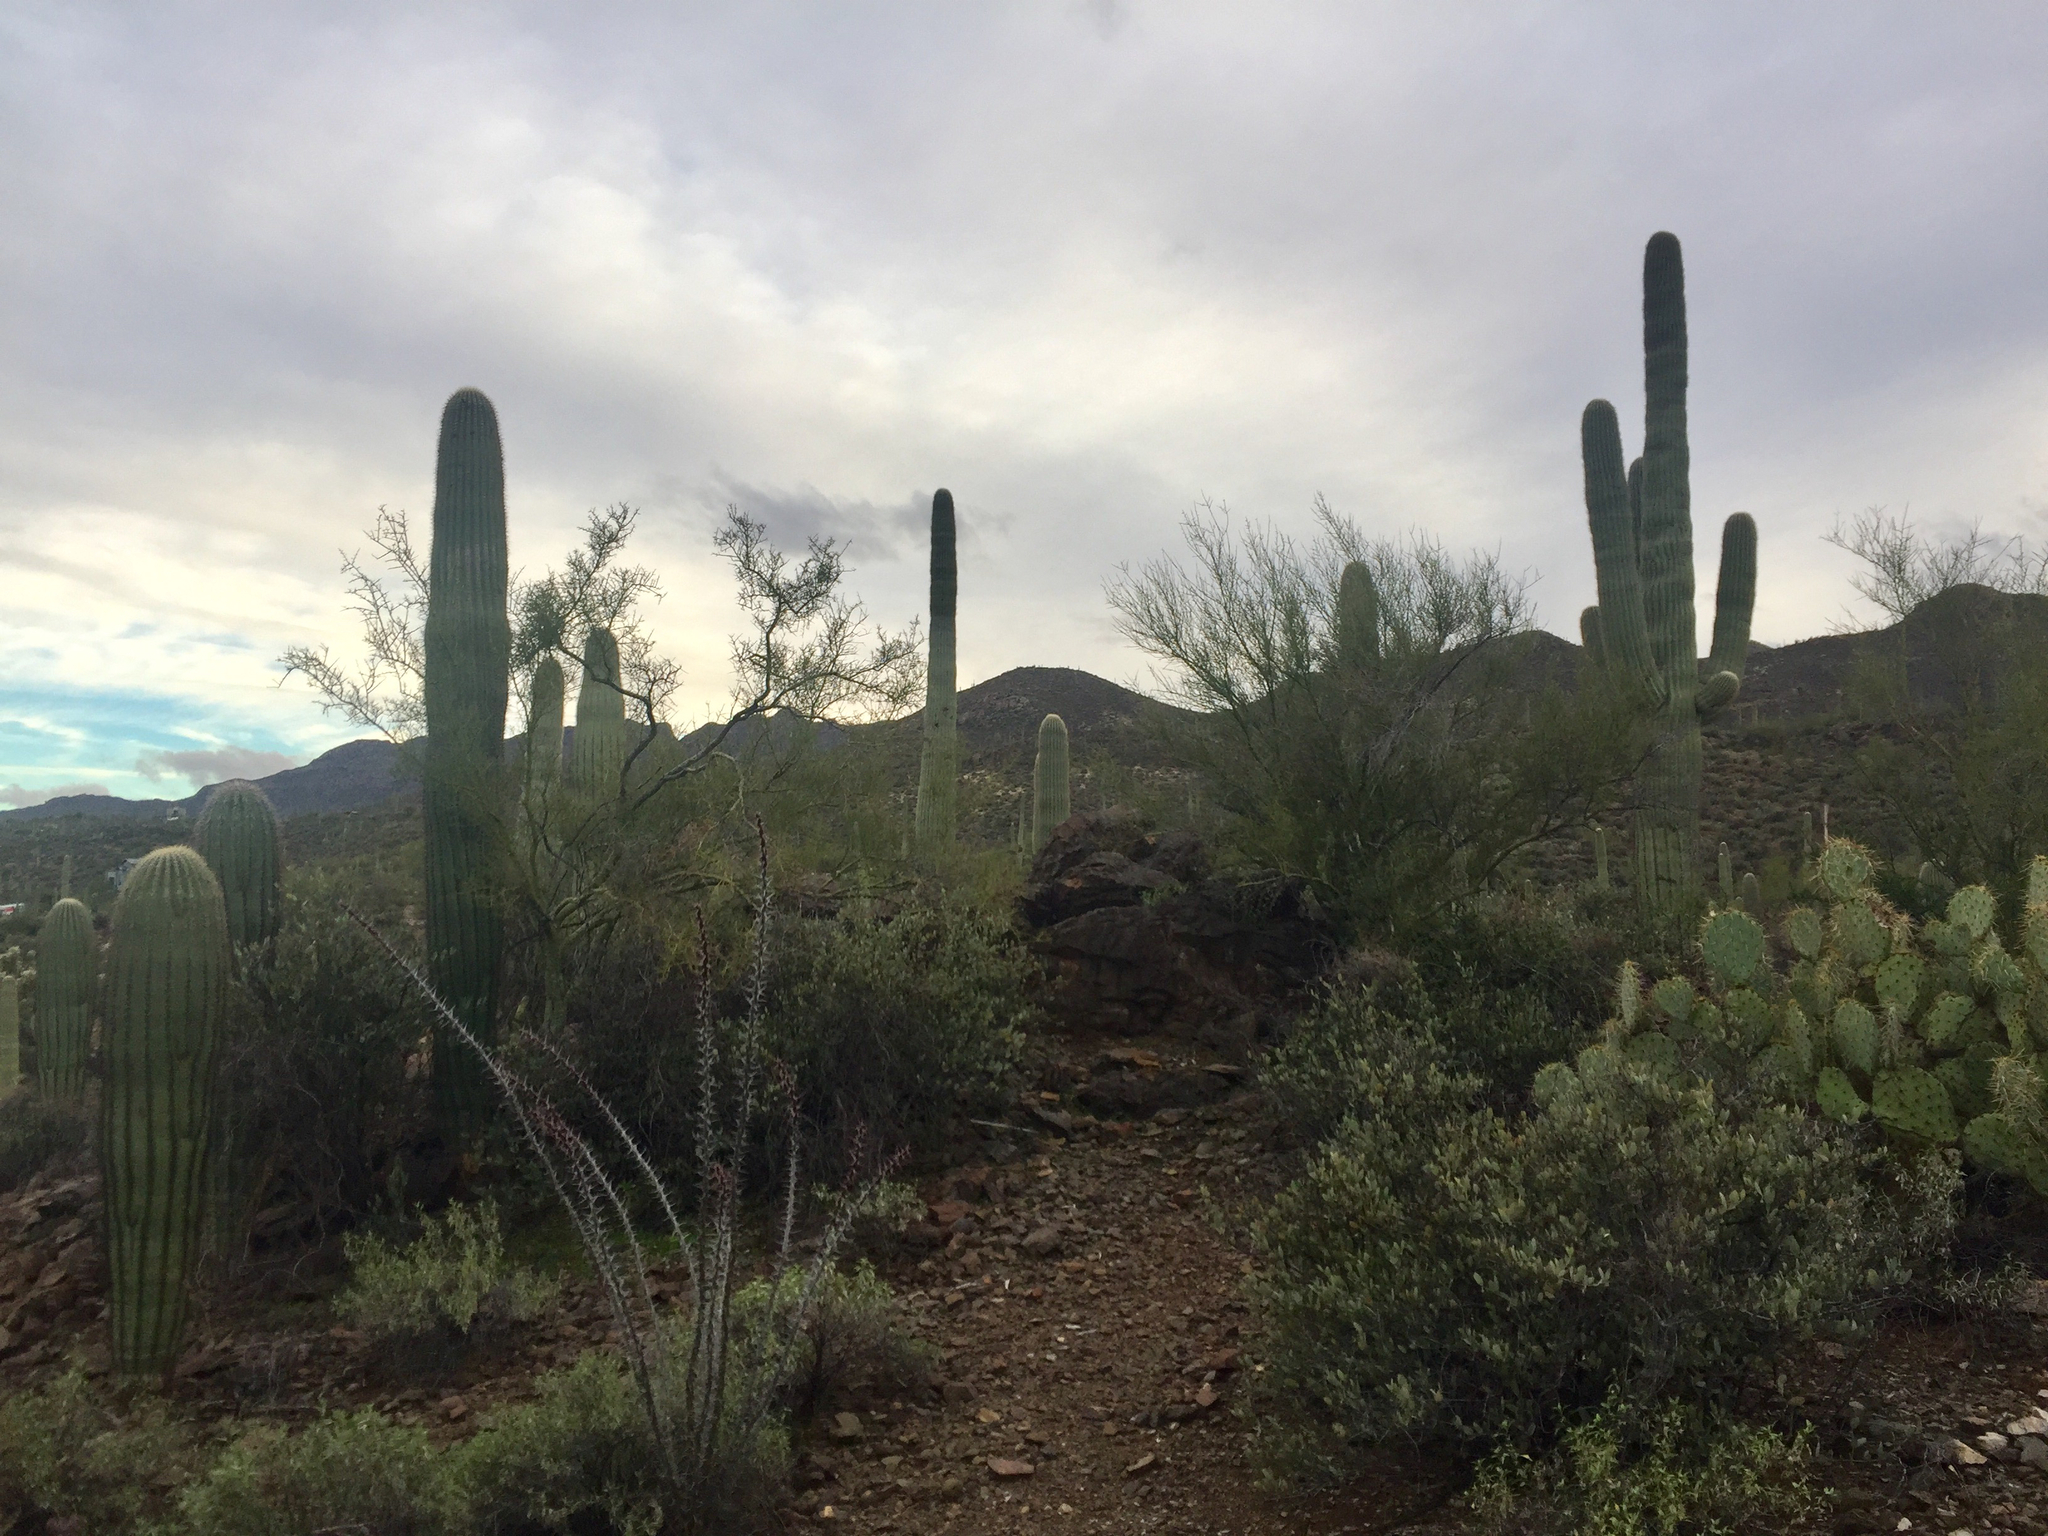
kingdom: Plantae
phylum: Tracheophyta
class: Magnoliopsida
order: Caryophyllales
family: Cactaceae
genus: Carnegiea
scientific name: Carnegiea gigantea
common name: Saguaro
